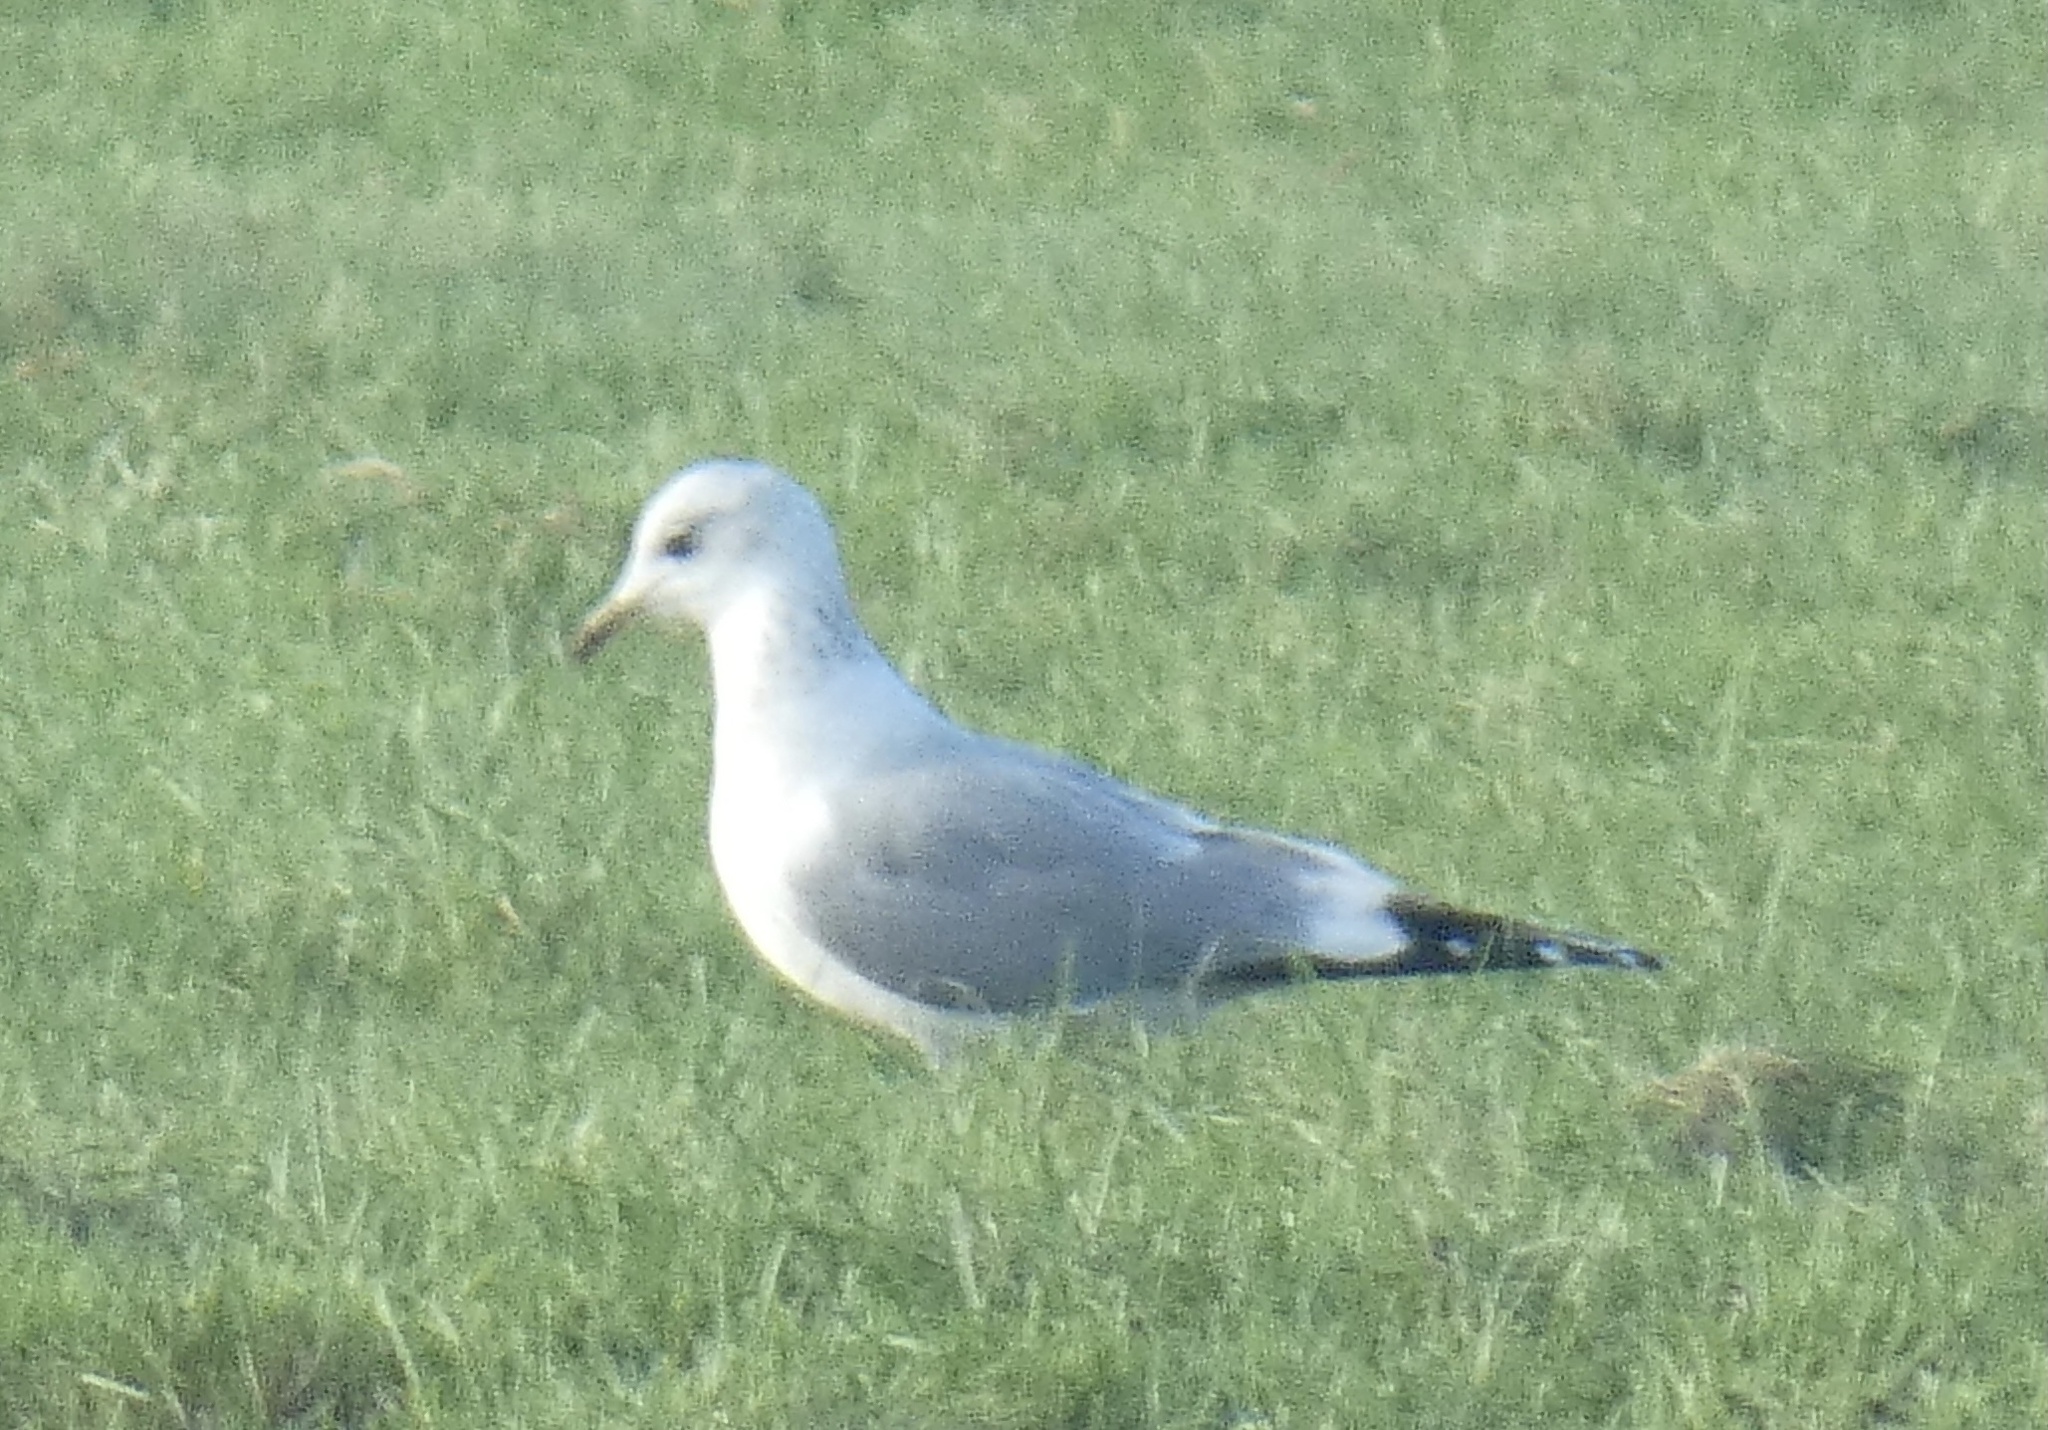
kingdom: Animalia
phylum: Chordata
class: Aves
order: Charadriiformes
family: Laridae
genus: Larus
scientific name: Larus canus
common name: Mew gull
